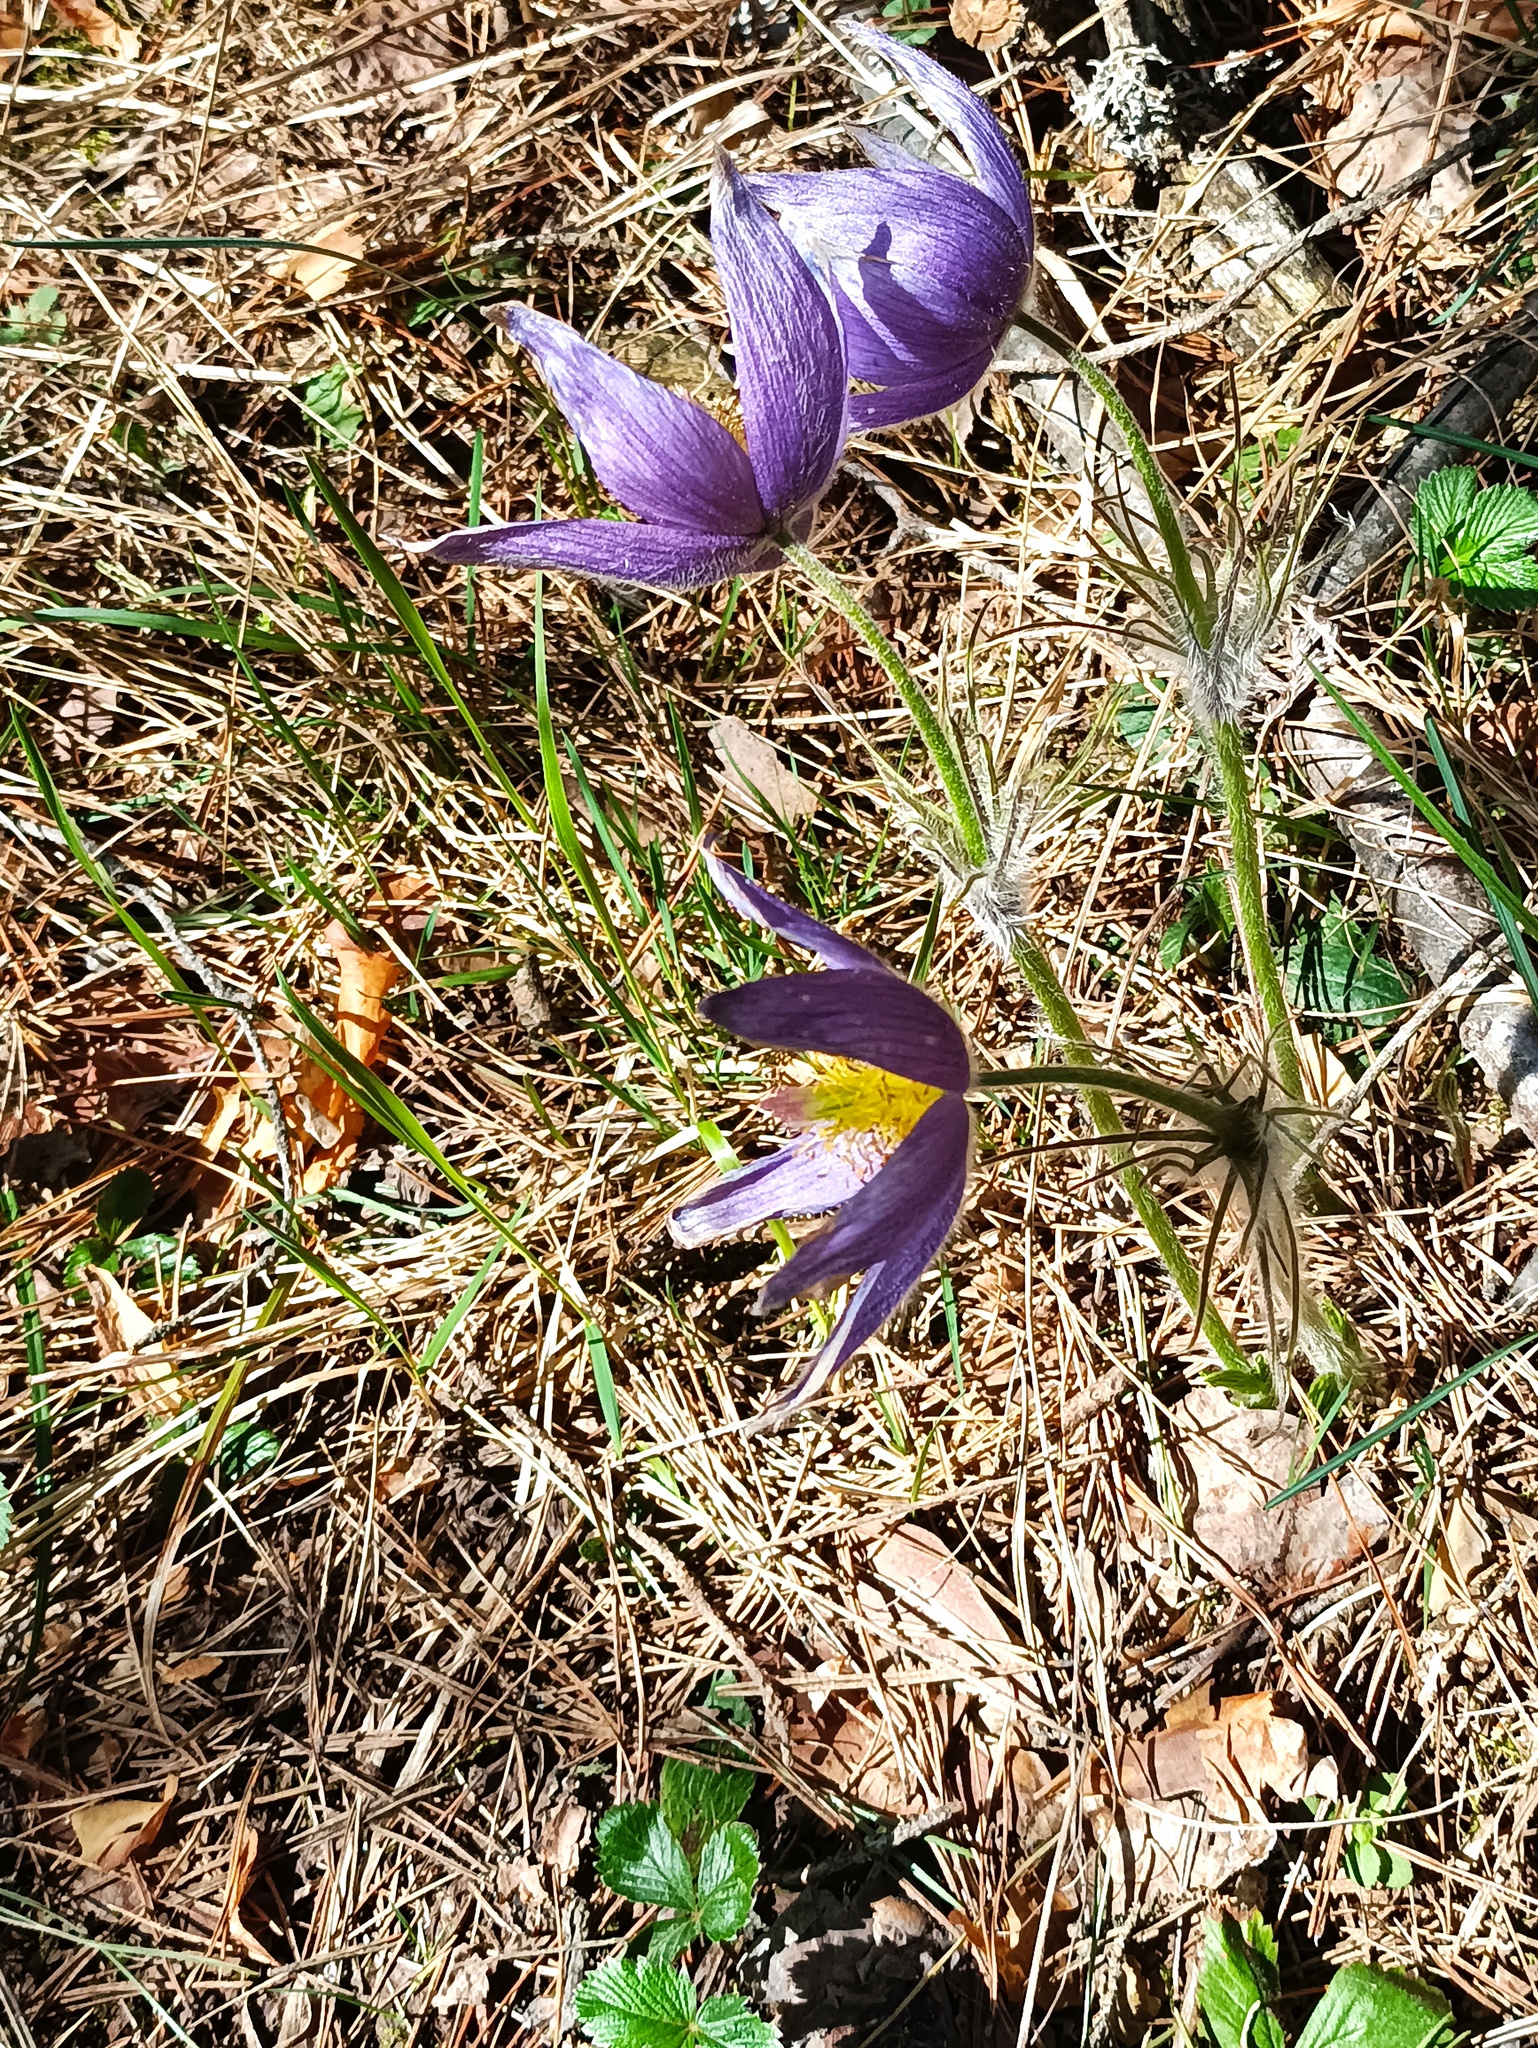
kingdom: Plantae
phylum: Tracheophyta
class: Magnoliopsida
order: Ranunculales
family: Ranunculaceae
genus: Pulsatilla
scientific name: Pulsatilla patens
